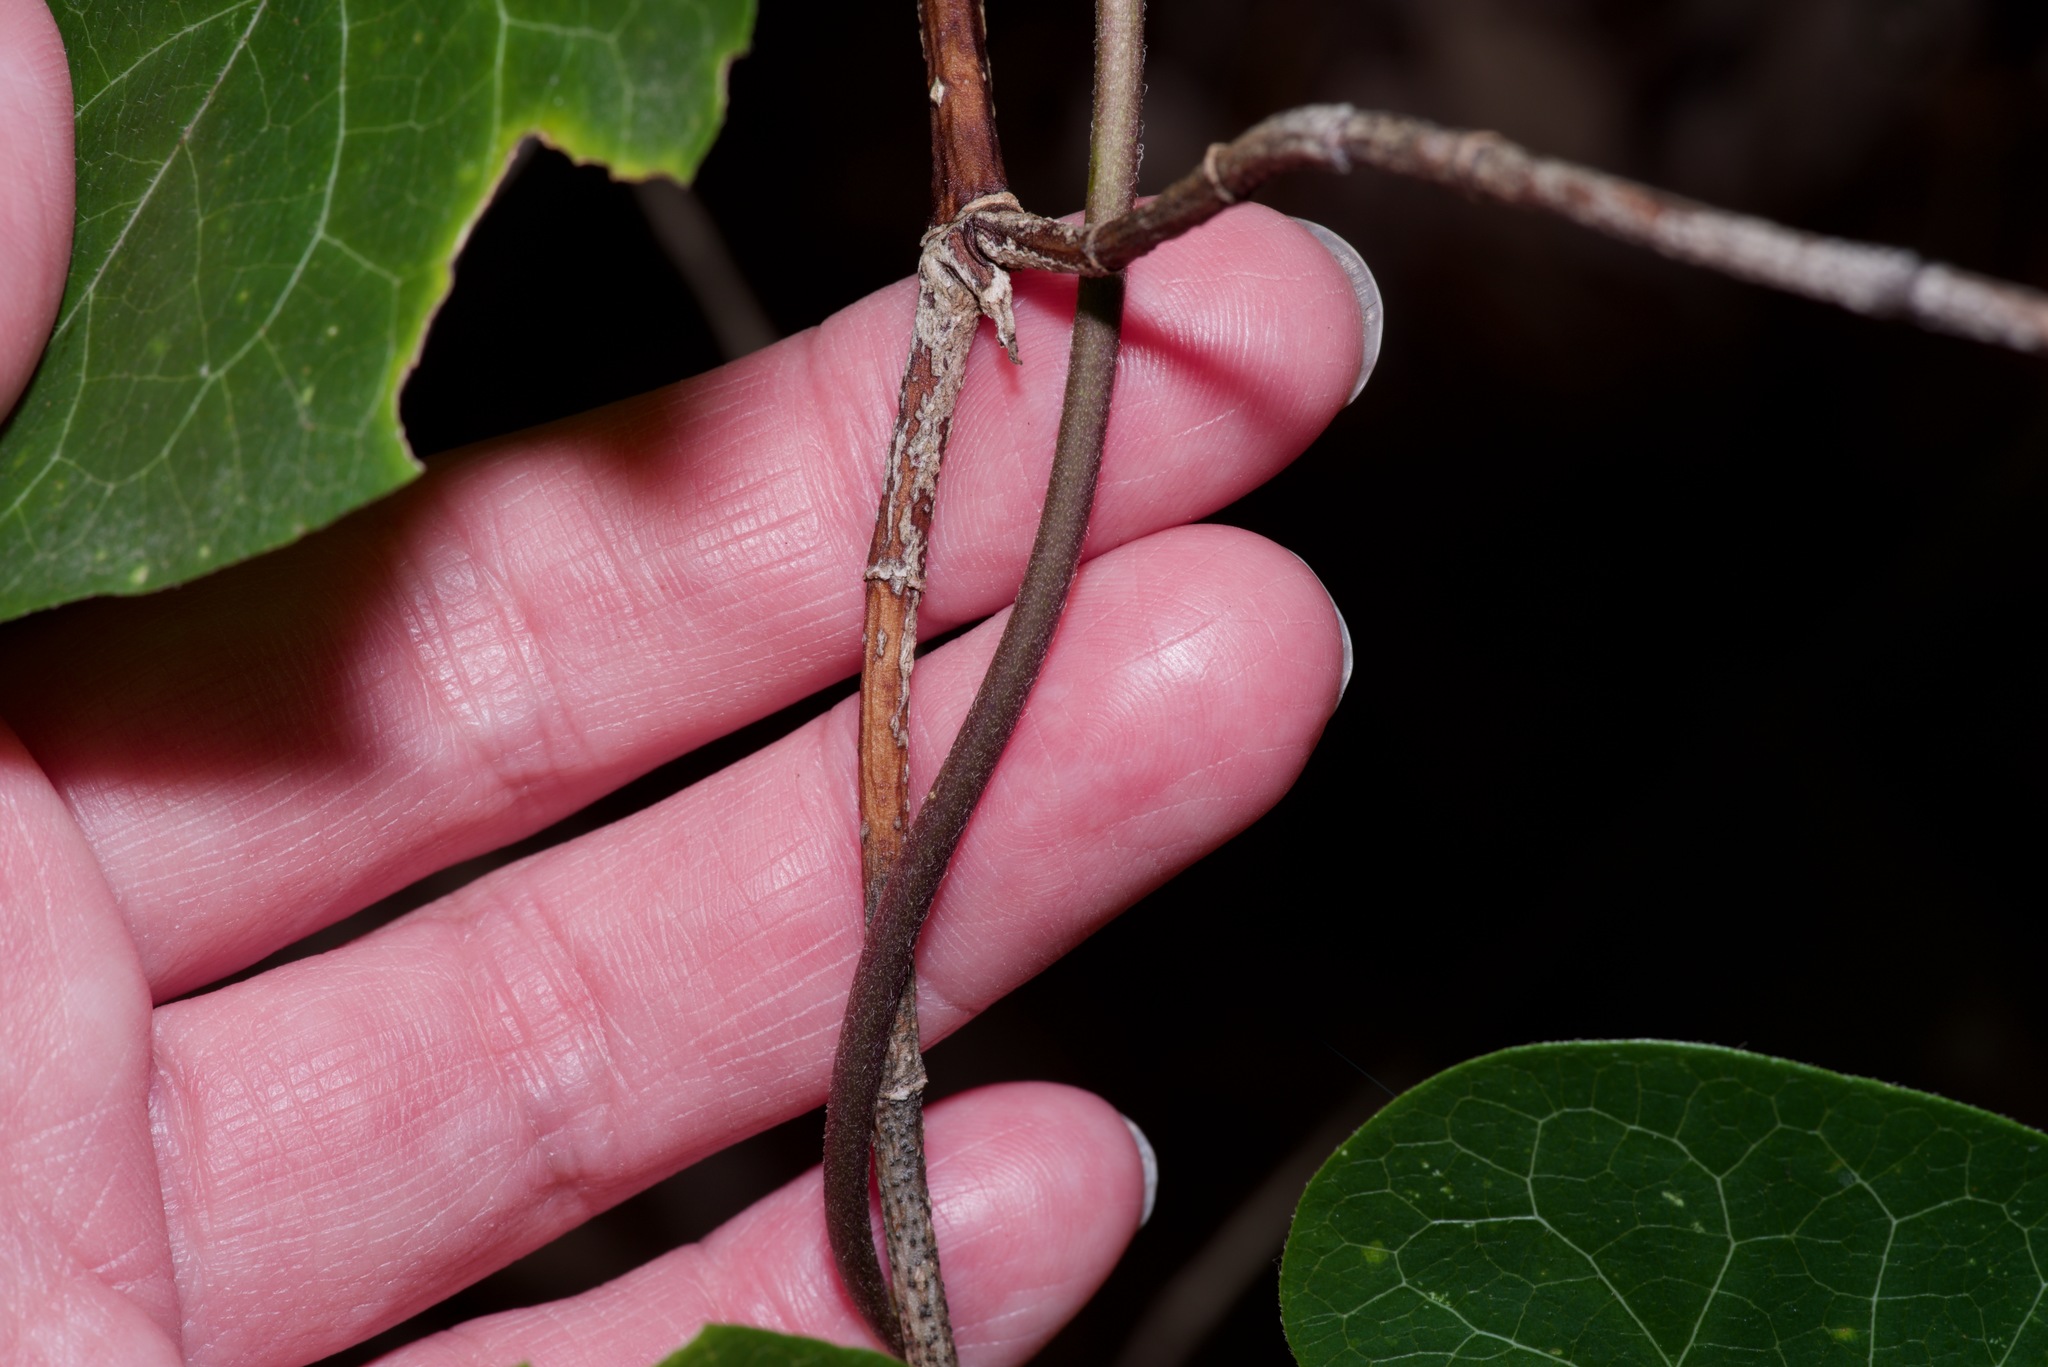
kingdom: Plantae
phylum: Tracheophyta
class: Magnoliopsida
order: Gentianales
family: Apocynaceae
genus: Matelea
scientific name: Matelea edwardsensis
